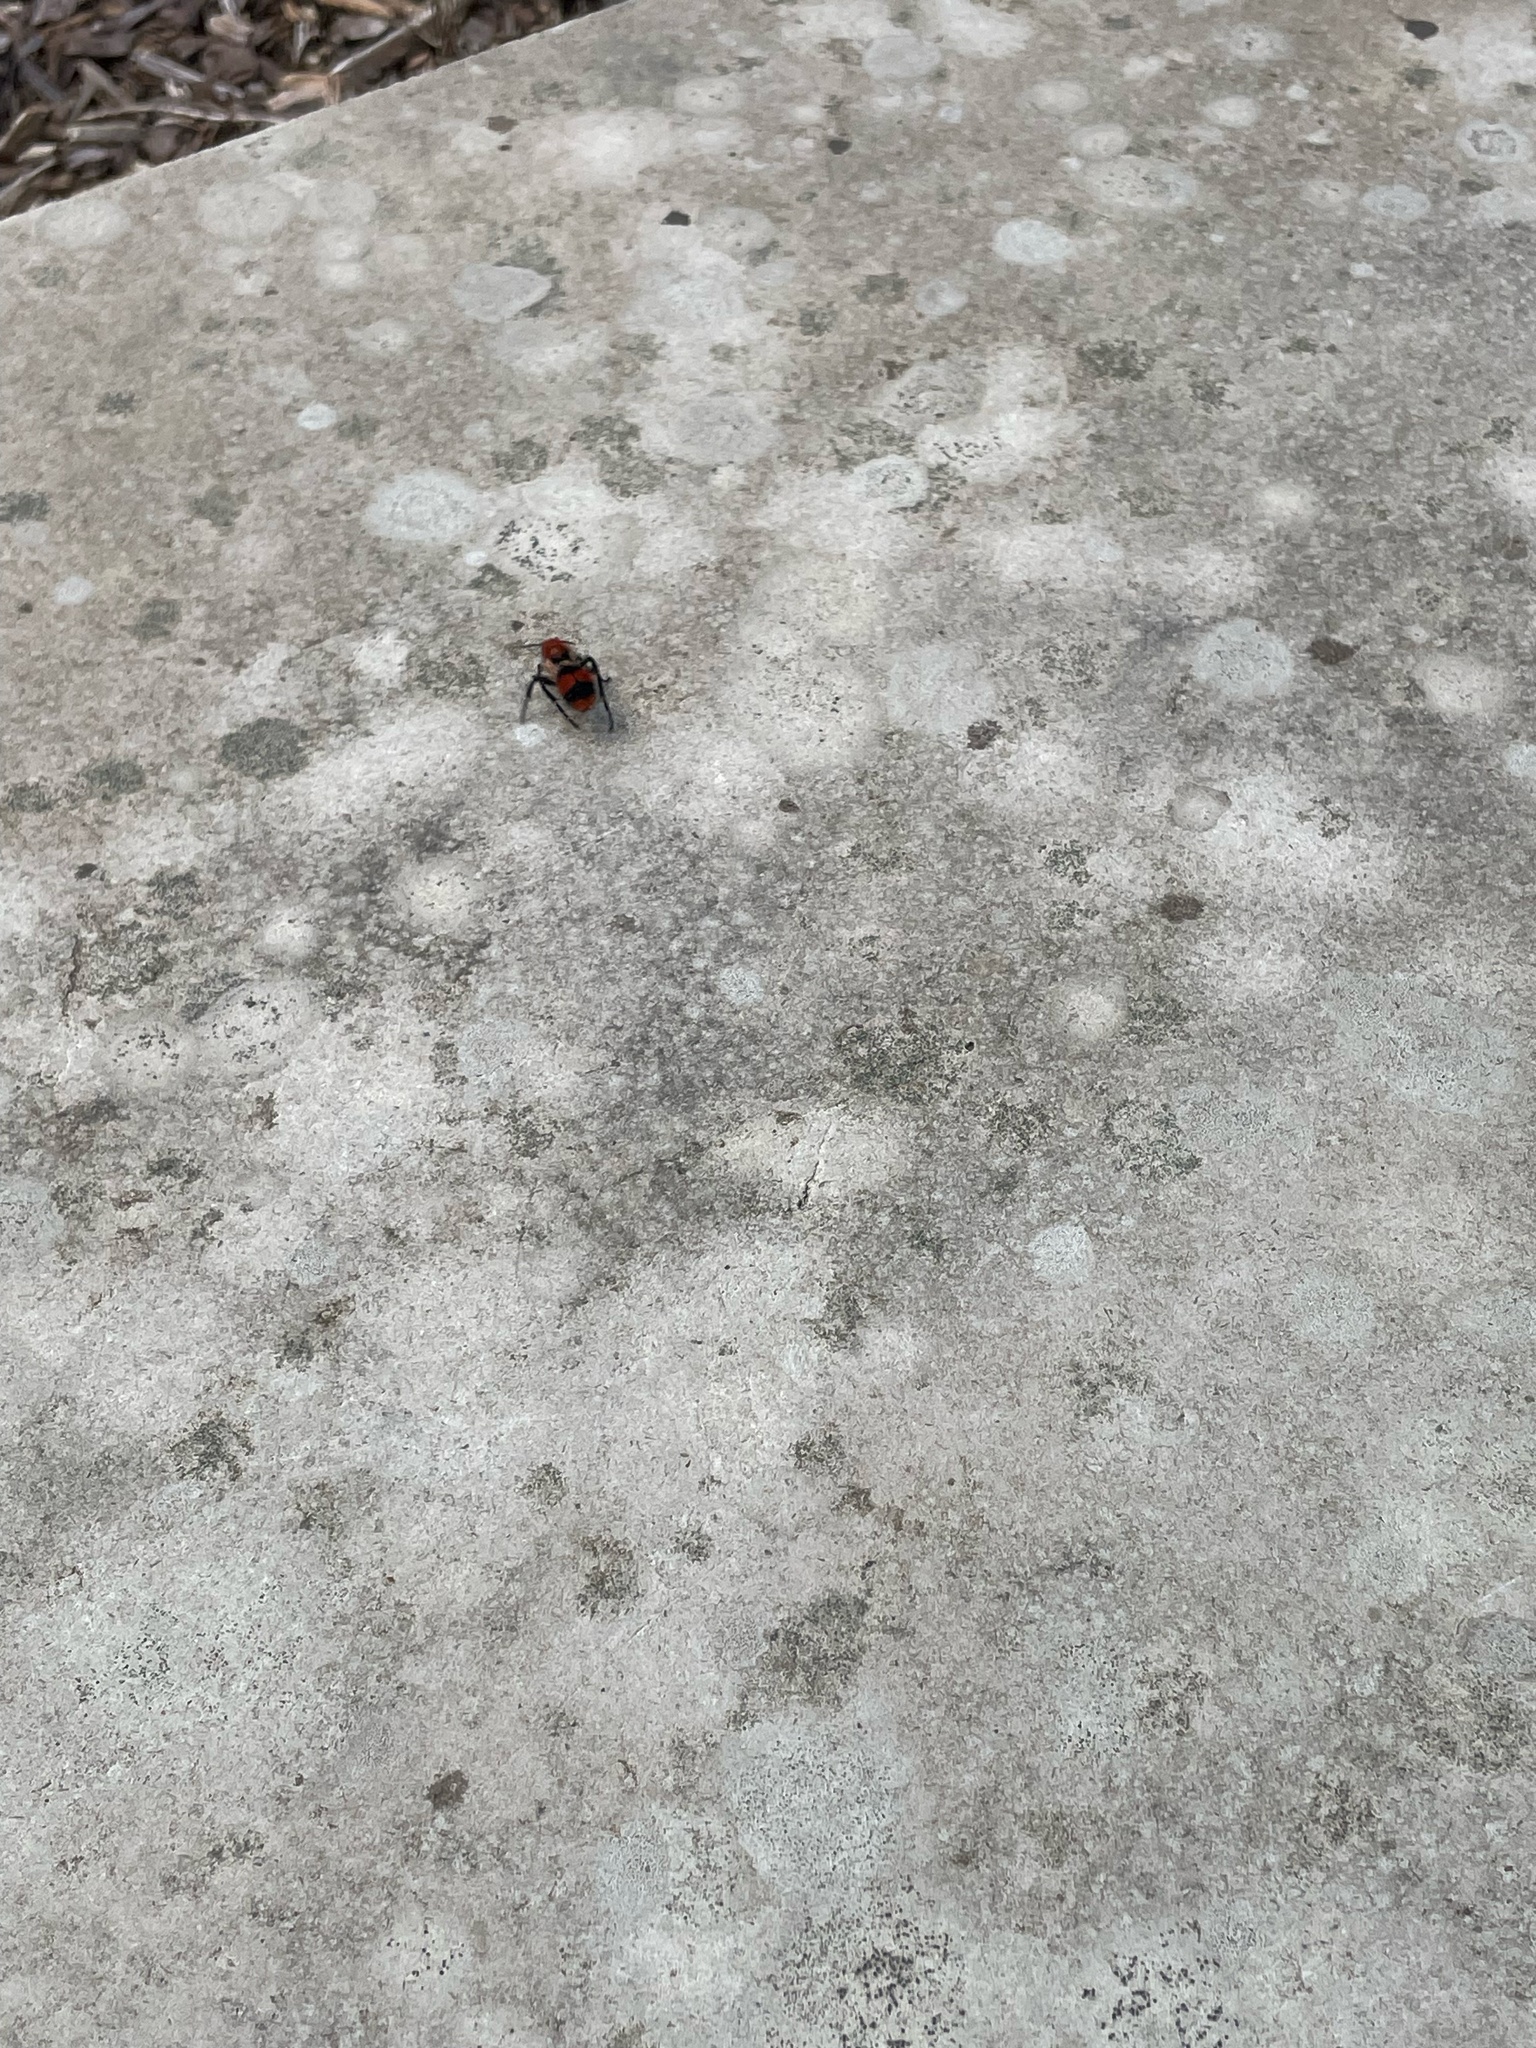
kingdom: Animalia
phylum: Arthropoda
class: Insecta
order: Hymenoptera
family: Mutillidae
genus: Dasymutilla
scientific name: Dasymutilla occidentalis
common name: Common eastern velvet ant
